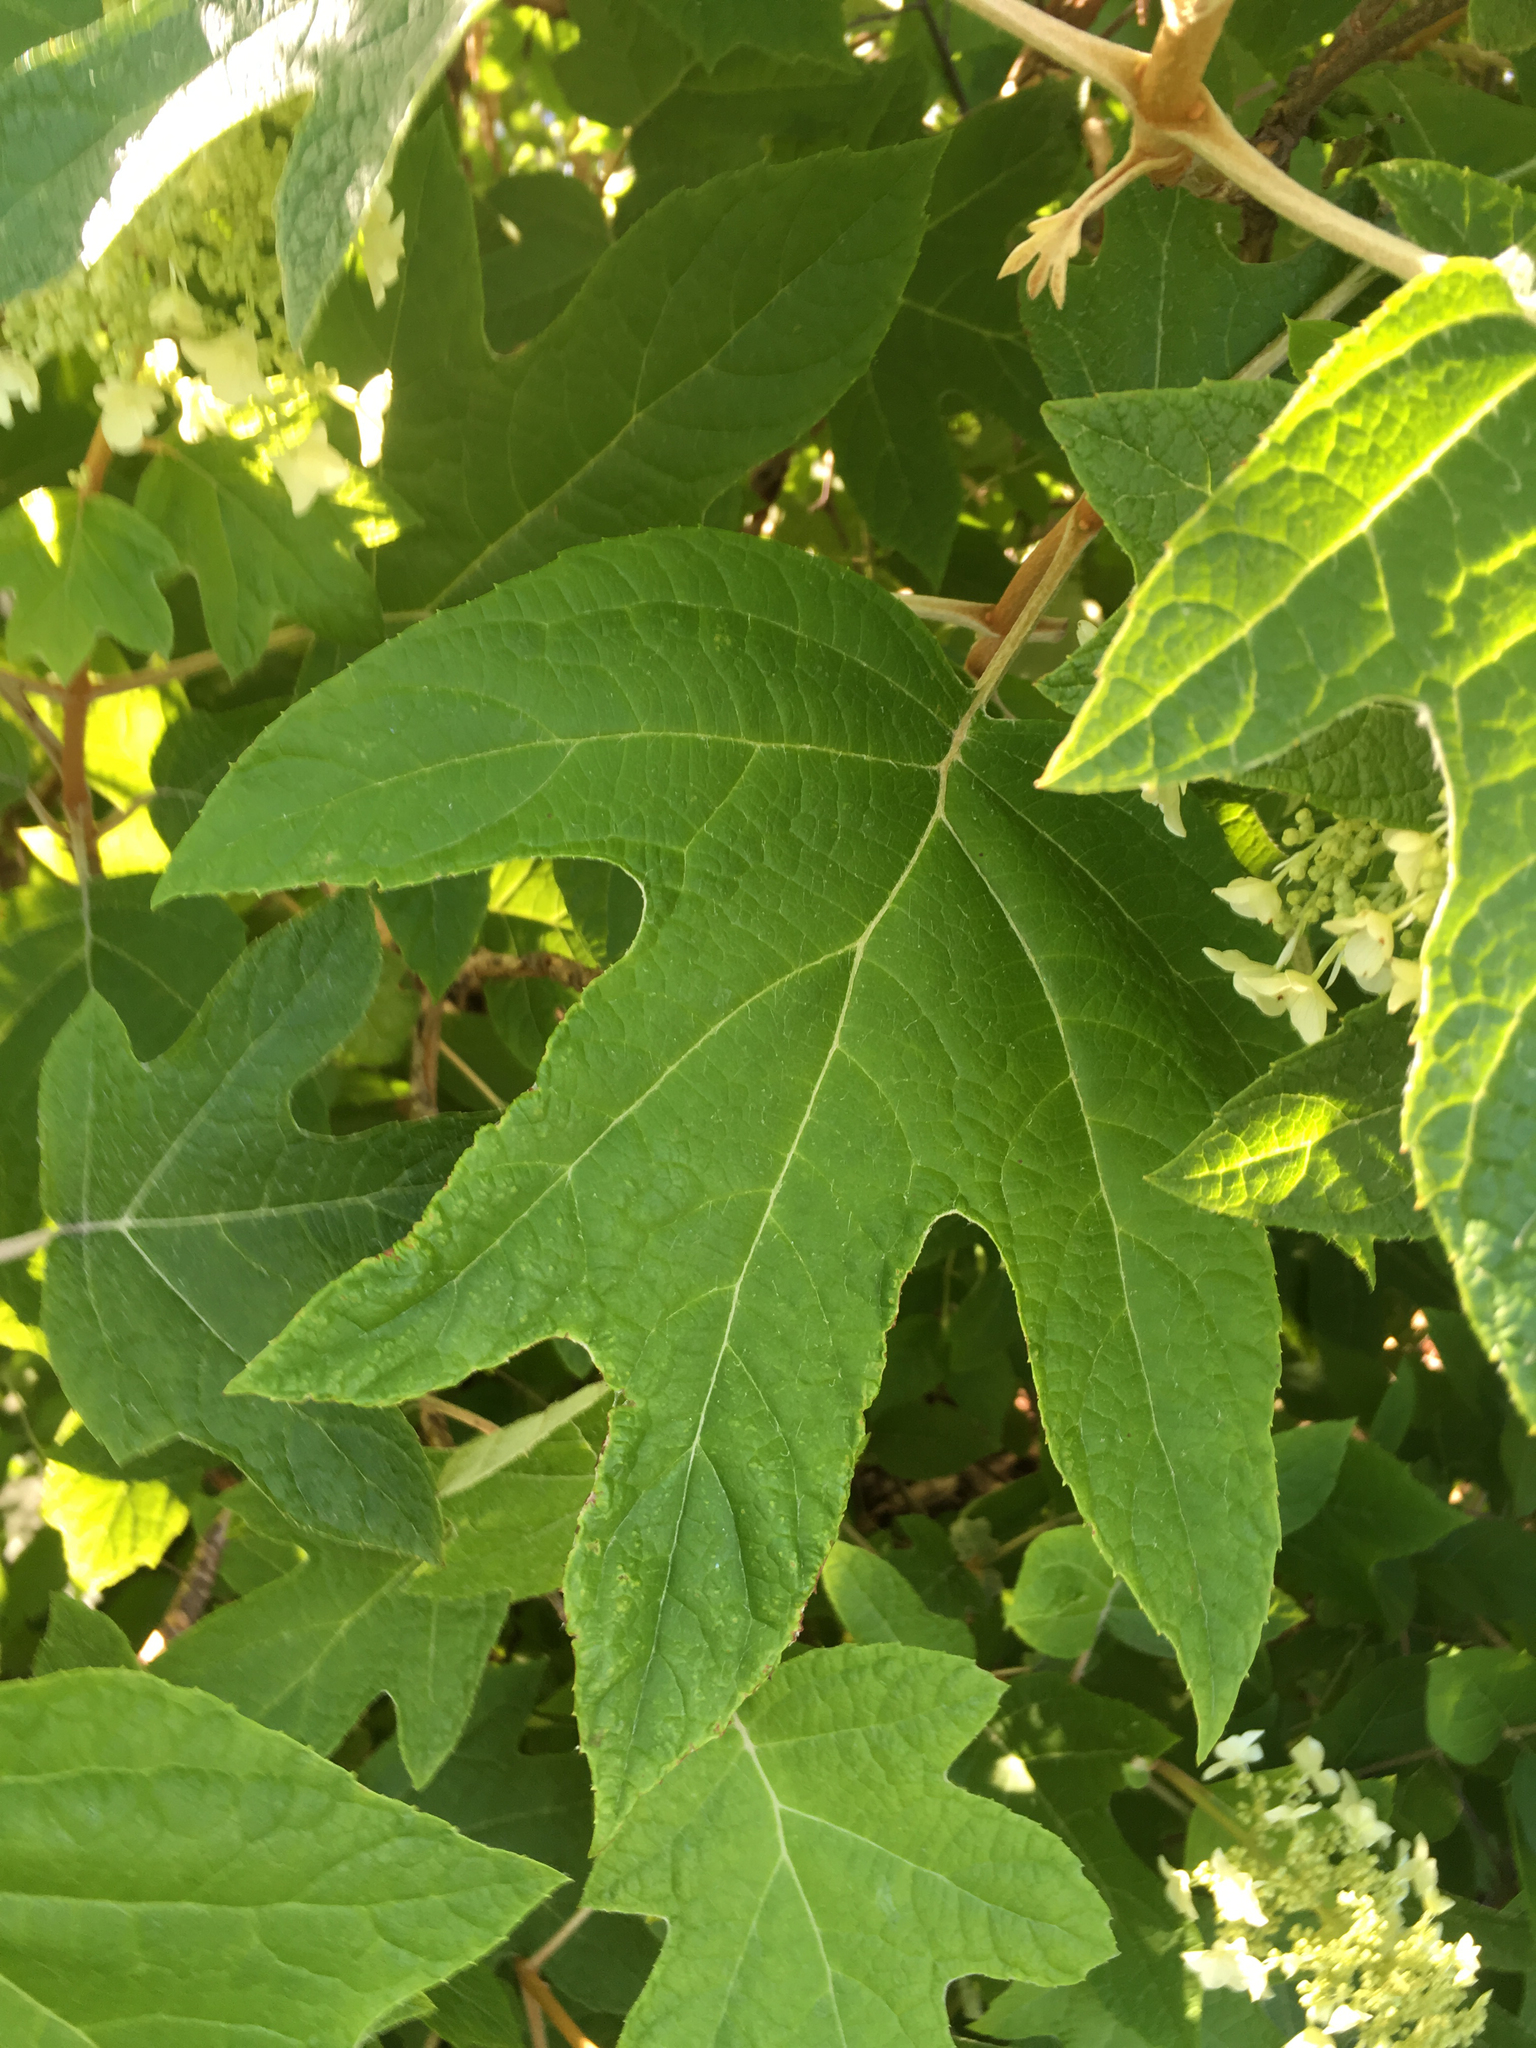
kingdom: Plantae
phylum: Tracheophyta
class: Magnoliopsida
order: Cornales
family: Hydrangeaceae
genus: Hydrangea
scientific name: Hydrangea quercifolia
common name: Oak-leaf hydrangea
